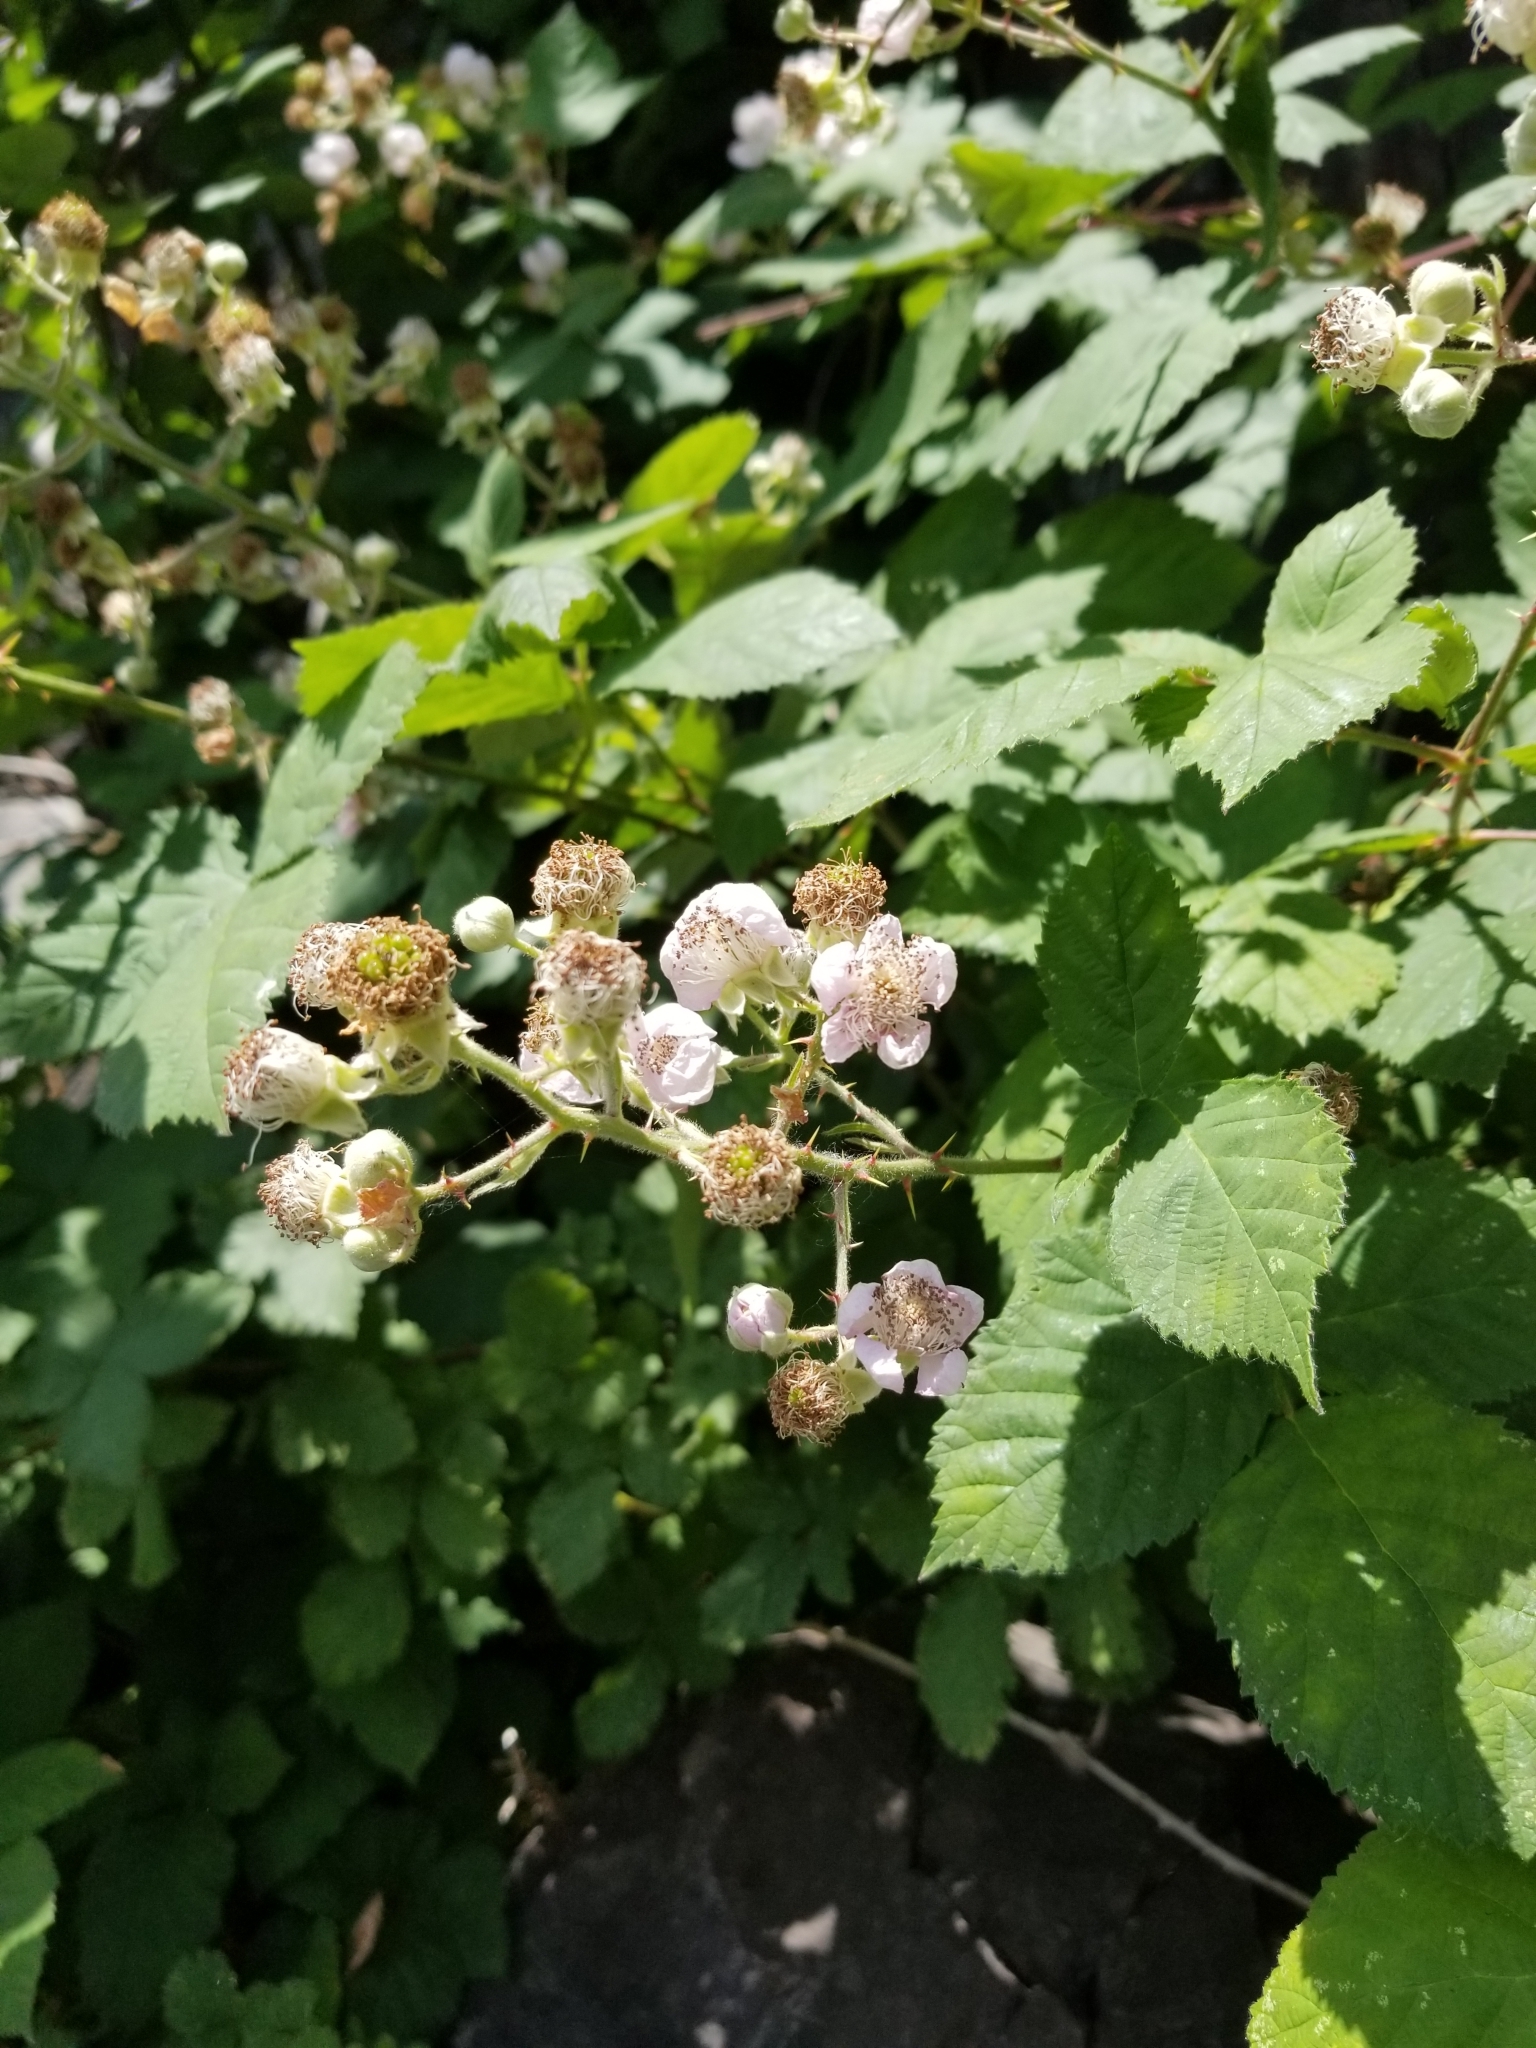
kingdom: Plantae
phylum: Tracheophyta
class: Magnoliopsida
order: Rosales
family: Rosaceae
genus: Rubus
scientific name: Rubus armeniacus
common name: Himalayan blackberry
